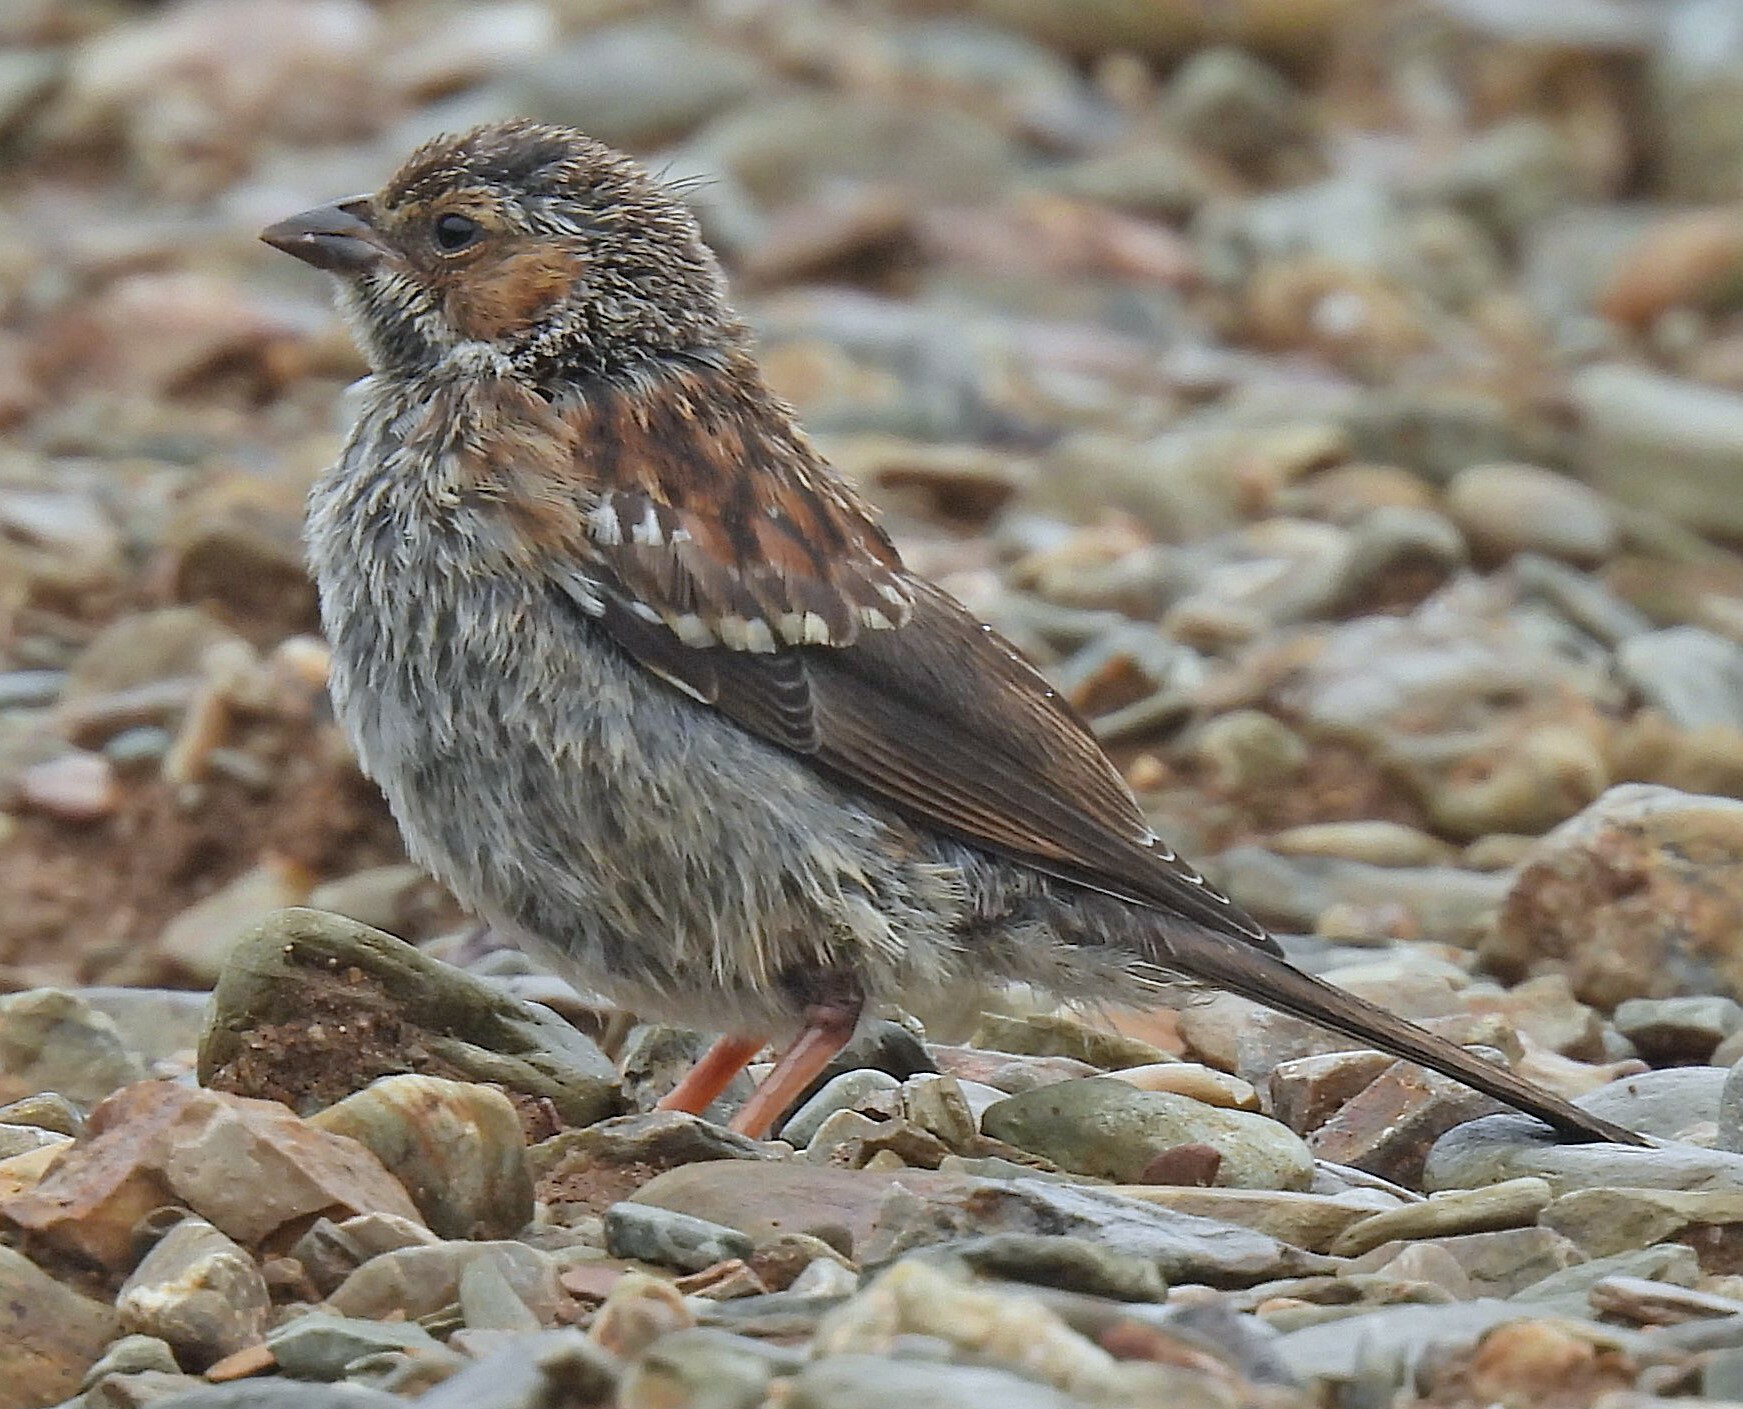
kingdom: Animalia
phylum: Chordata
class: Aves
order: Passeriformes
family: Thraupidae
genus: Rhopospina
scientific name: Rhopospina fruticeti
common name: Mourning sierra finch
